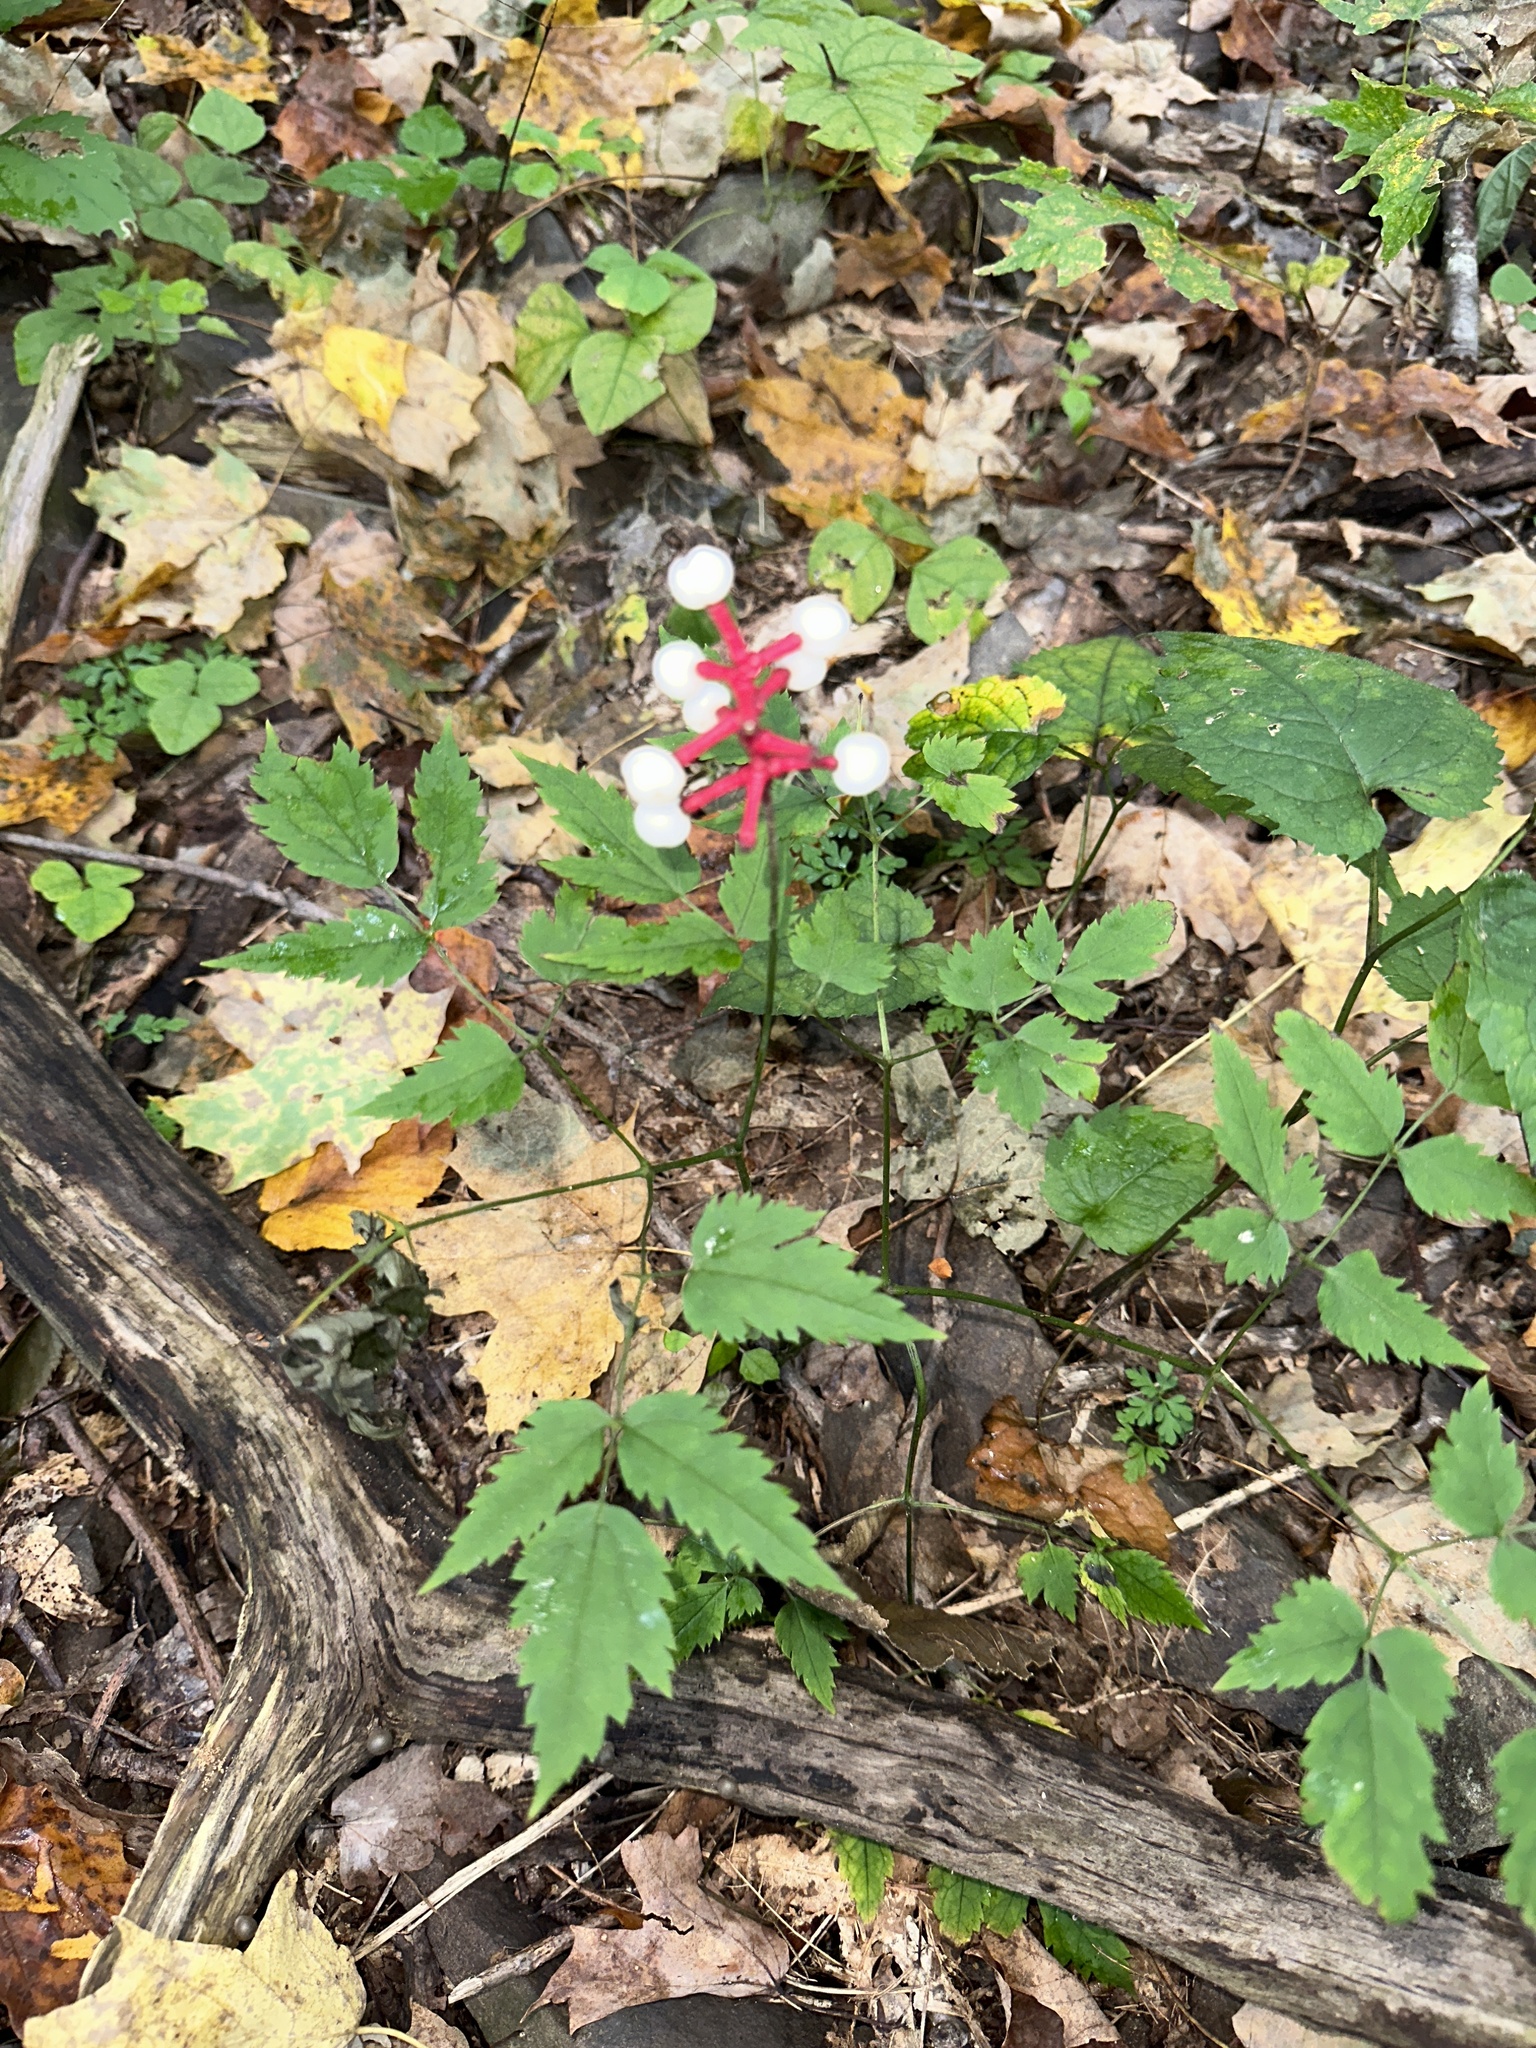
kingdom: Plantae
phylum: Tracheophyta
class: Magnoliopsida
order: Ranunculales
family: Ranunculaceae
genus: Actaea
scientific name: Actaea pachypoda
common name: Doll's-eyes
